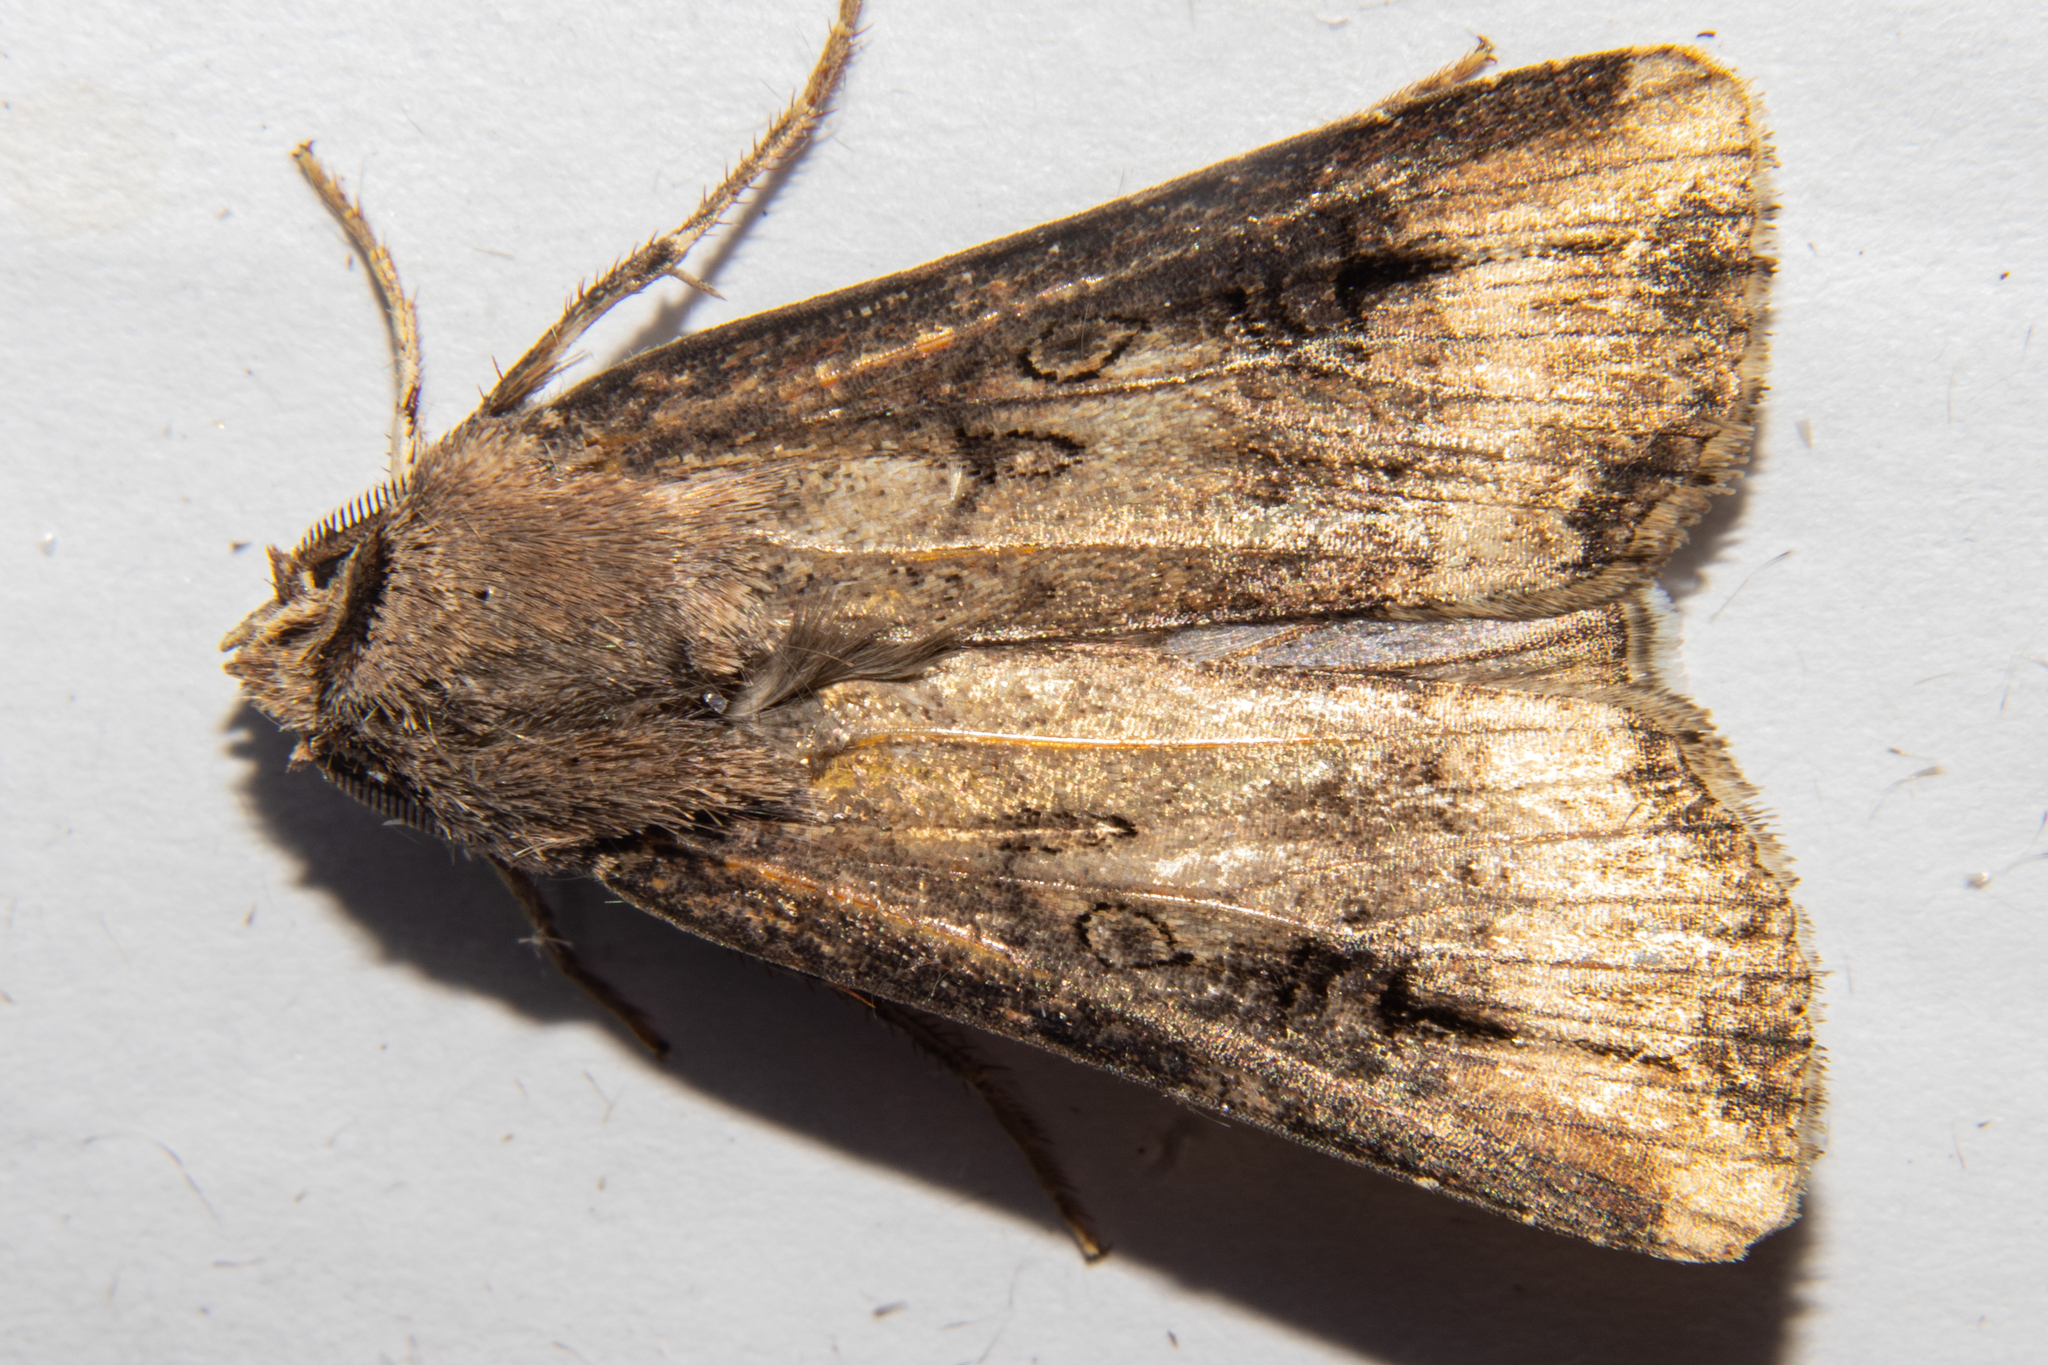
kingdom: Animalia
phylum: Arthropoda
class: Insecta
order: Lepidoptera
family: Noctuidae
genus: Agrotis
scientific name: Agrotis ipsilon
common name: Dark sword-grass
